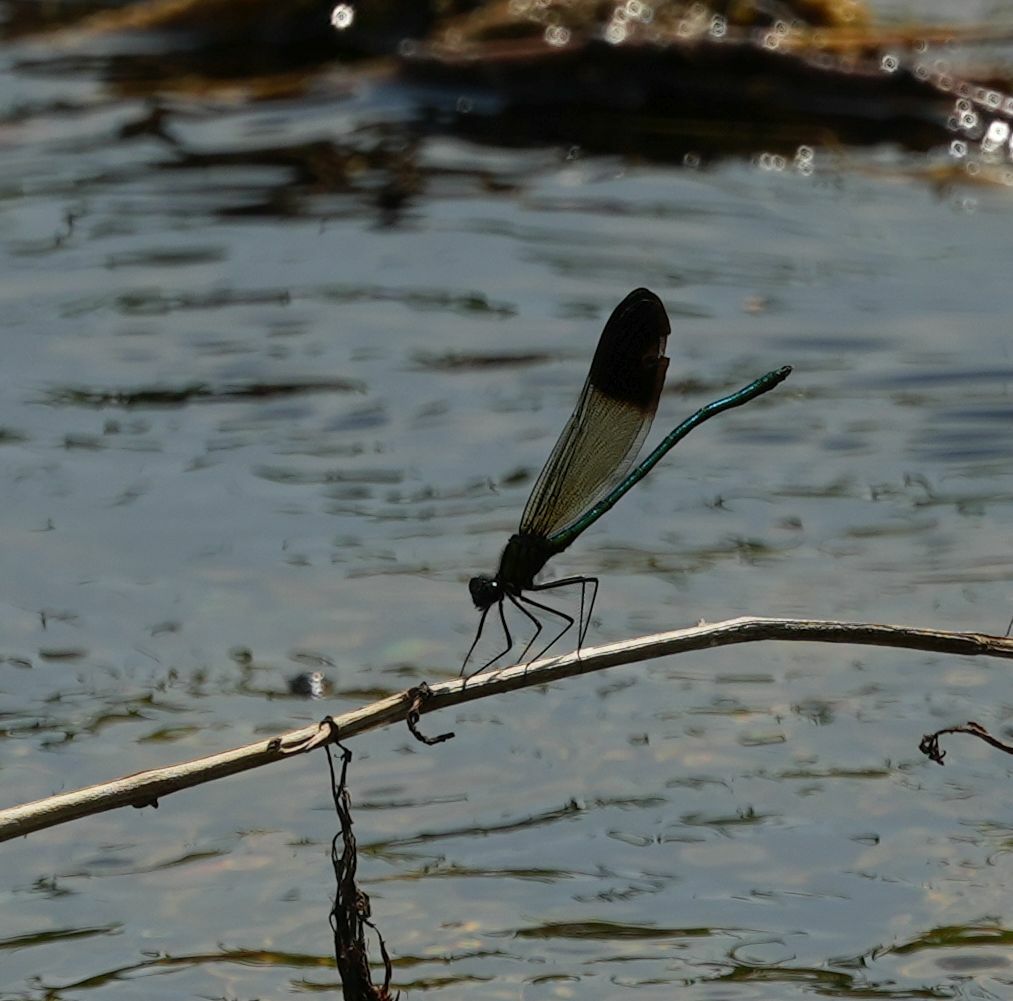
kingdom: Animalia
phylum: Arthropoda
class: Insecta
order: Odonata
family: Calopterygidae
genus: Calopteryx
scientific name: Calopteryx aequabilis
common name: River jewelwing
